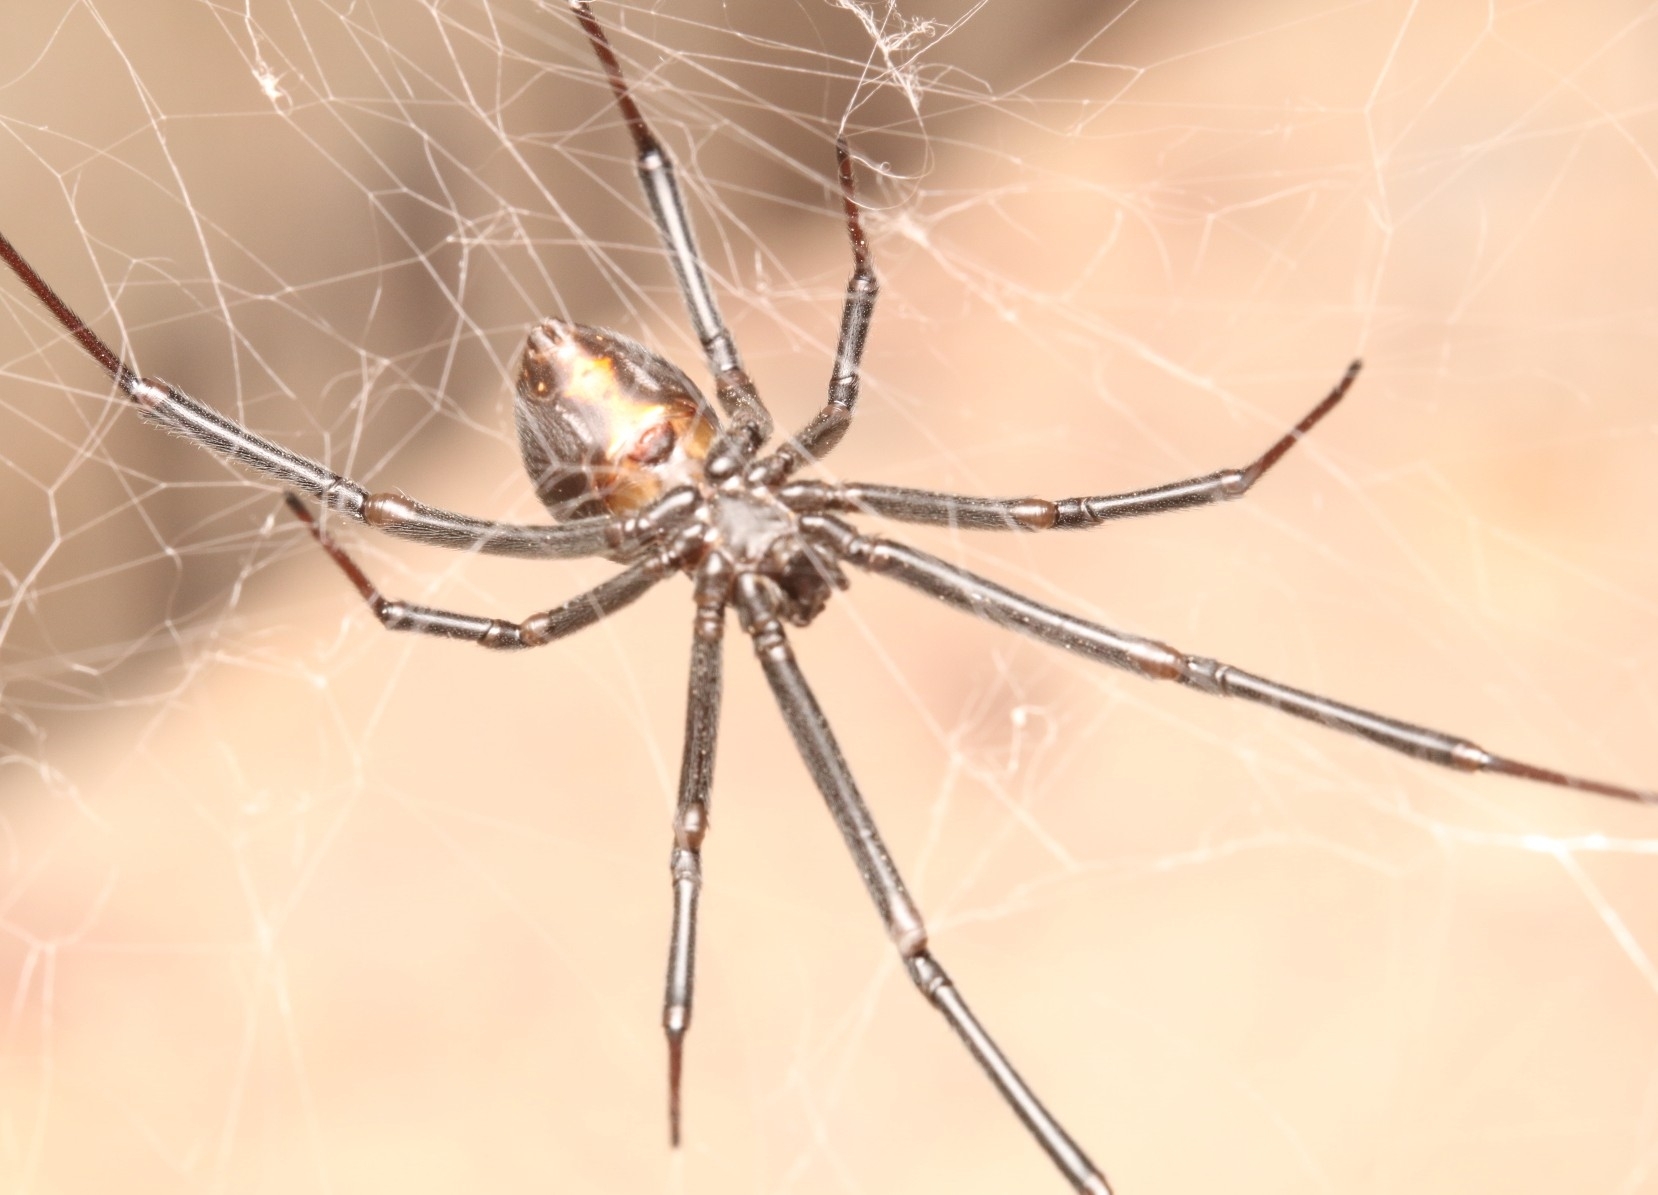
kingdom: Animalia
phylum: Arthropoda
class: Arachnida
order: Araneae
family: Theridiidae
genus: Latrodectus
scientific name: Latrodectus hesperus
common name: Western black widow
